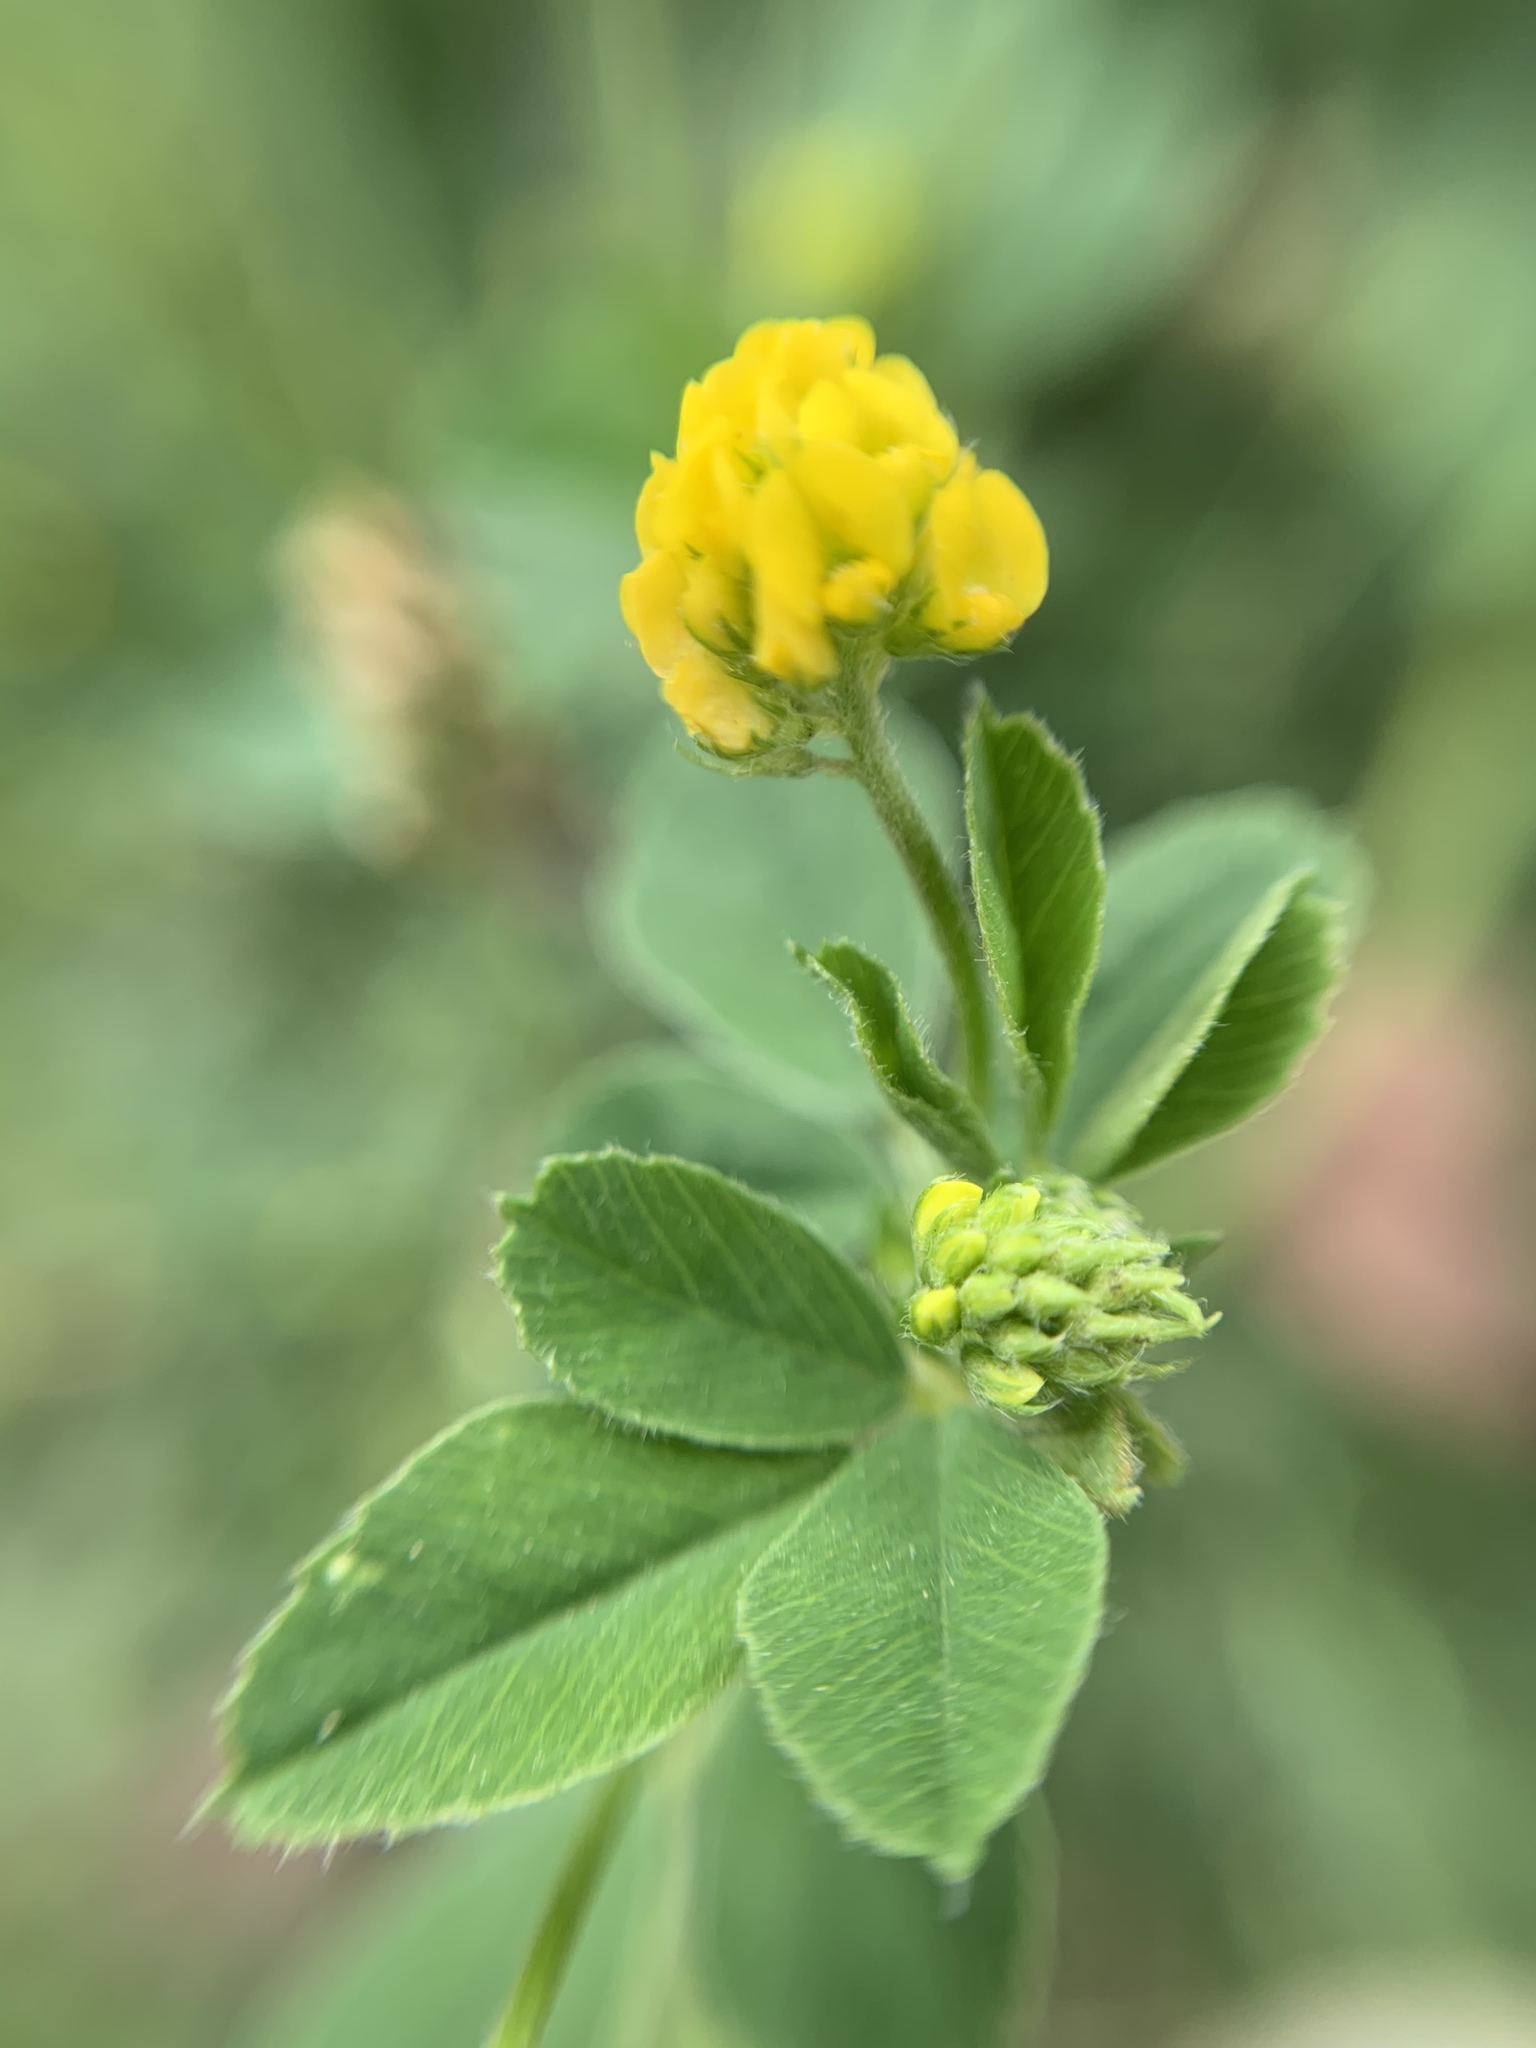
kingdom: Plantae
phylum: Tracheophyta
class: Magnoliopsida
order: Fabales
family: Fabaceae
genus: Medicago
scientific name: Medicago lupulina
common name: Black medick
